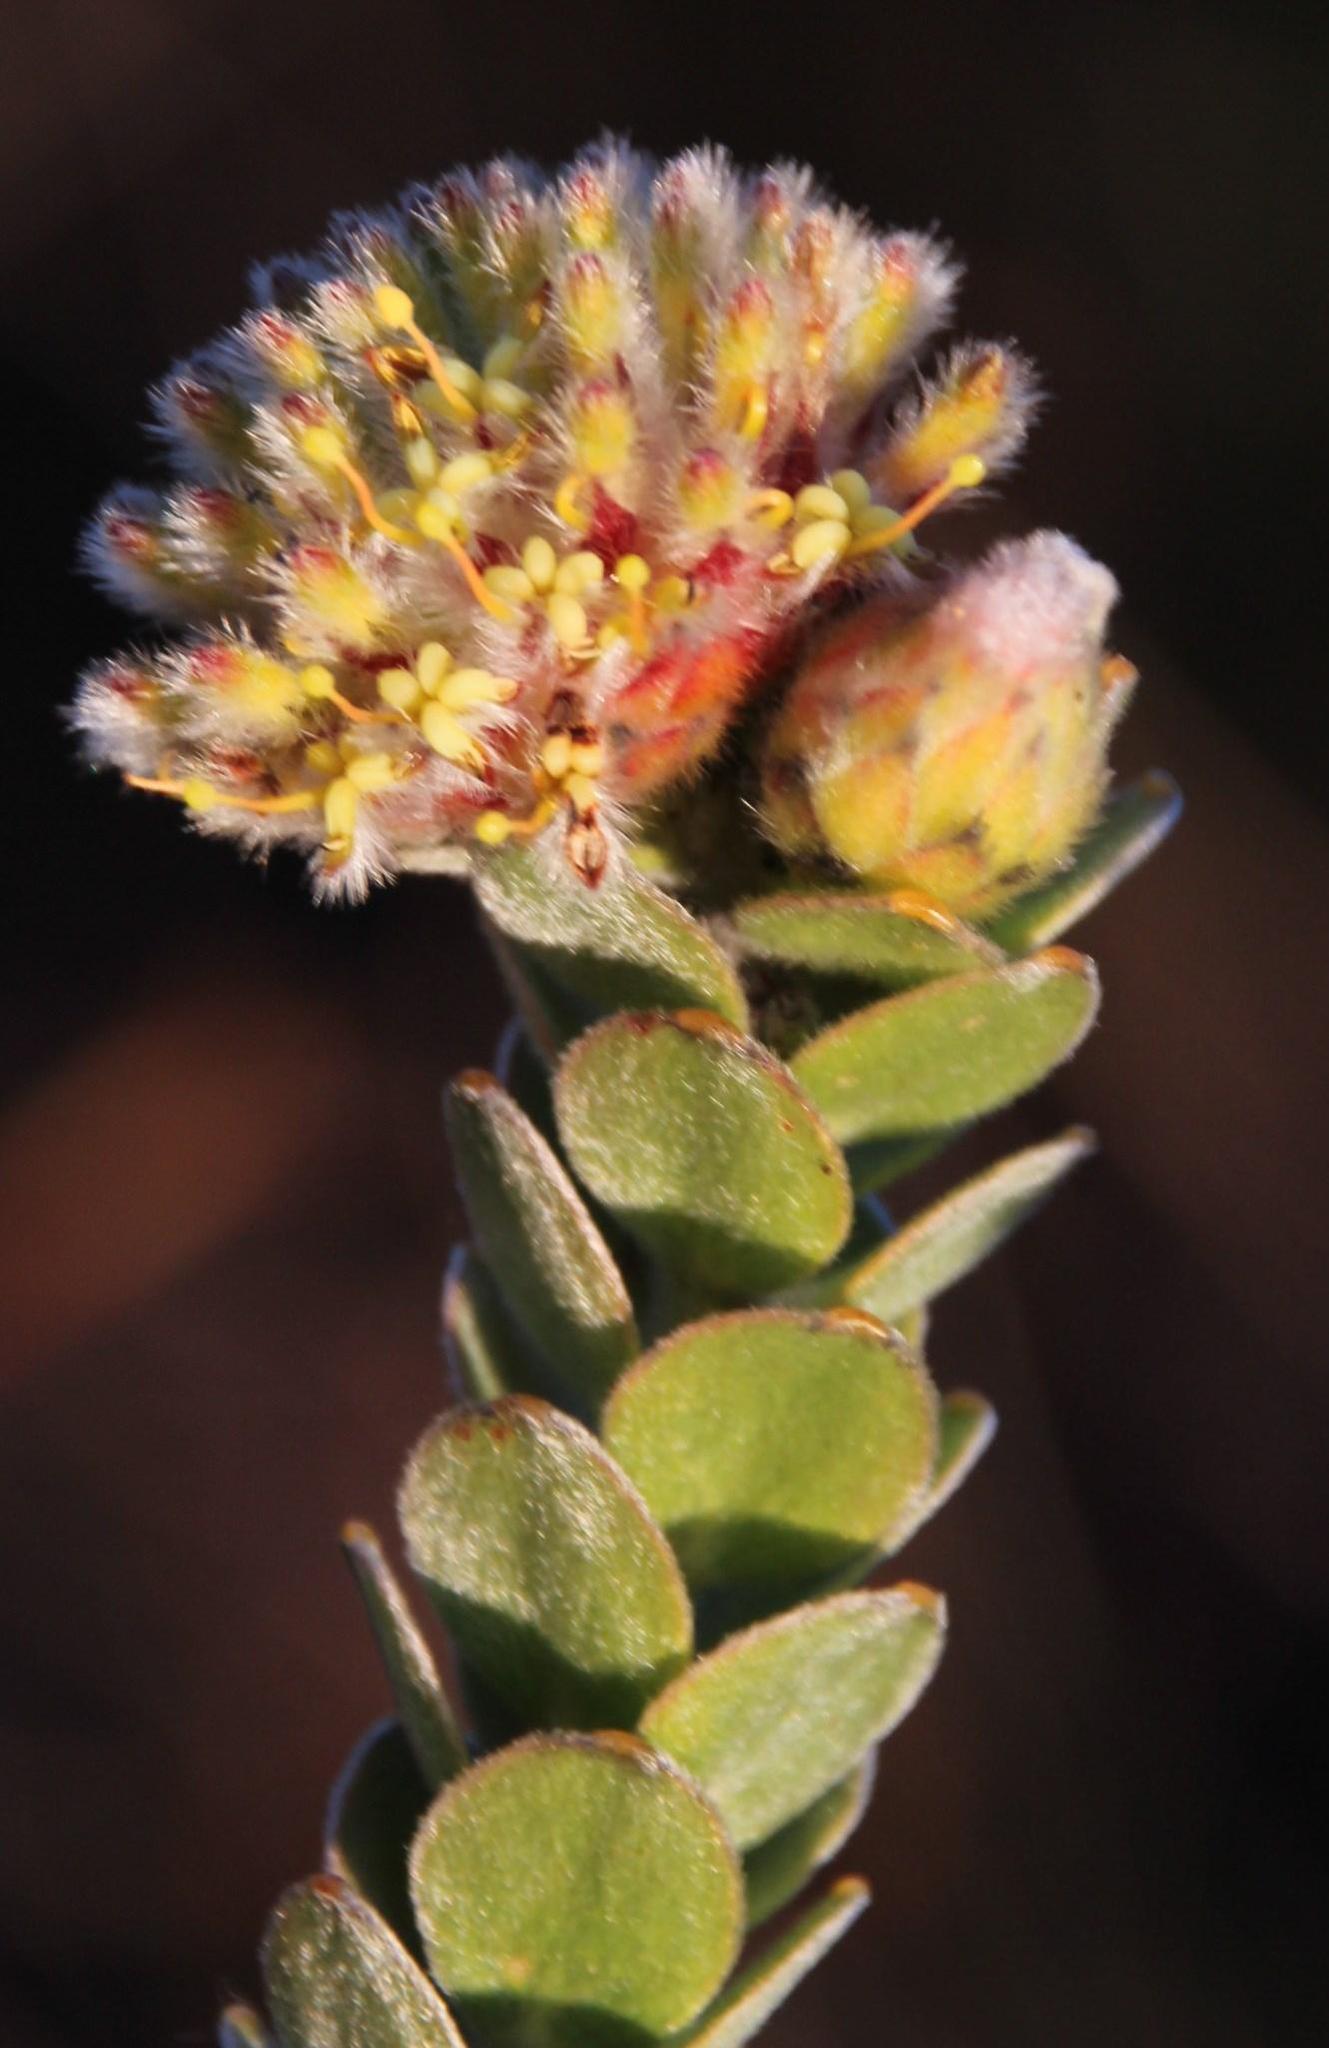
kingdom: Plantae
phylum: Tracheophyta
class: Magnoliopsida
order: Proteales
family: Proteaceae
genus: Leucospermum
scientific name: Leucospermum truncatulum
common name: Oval-leaf pincushion
